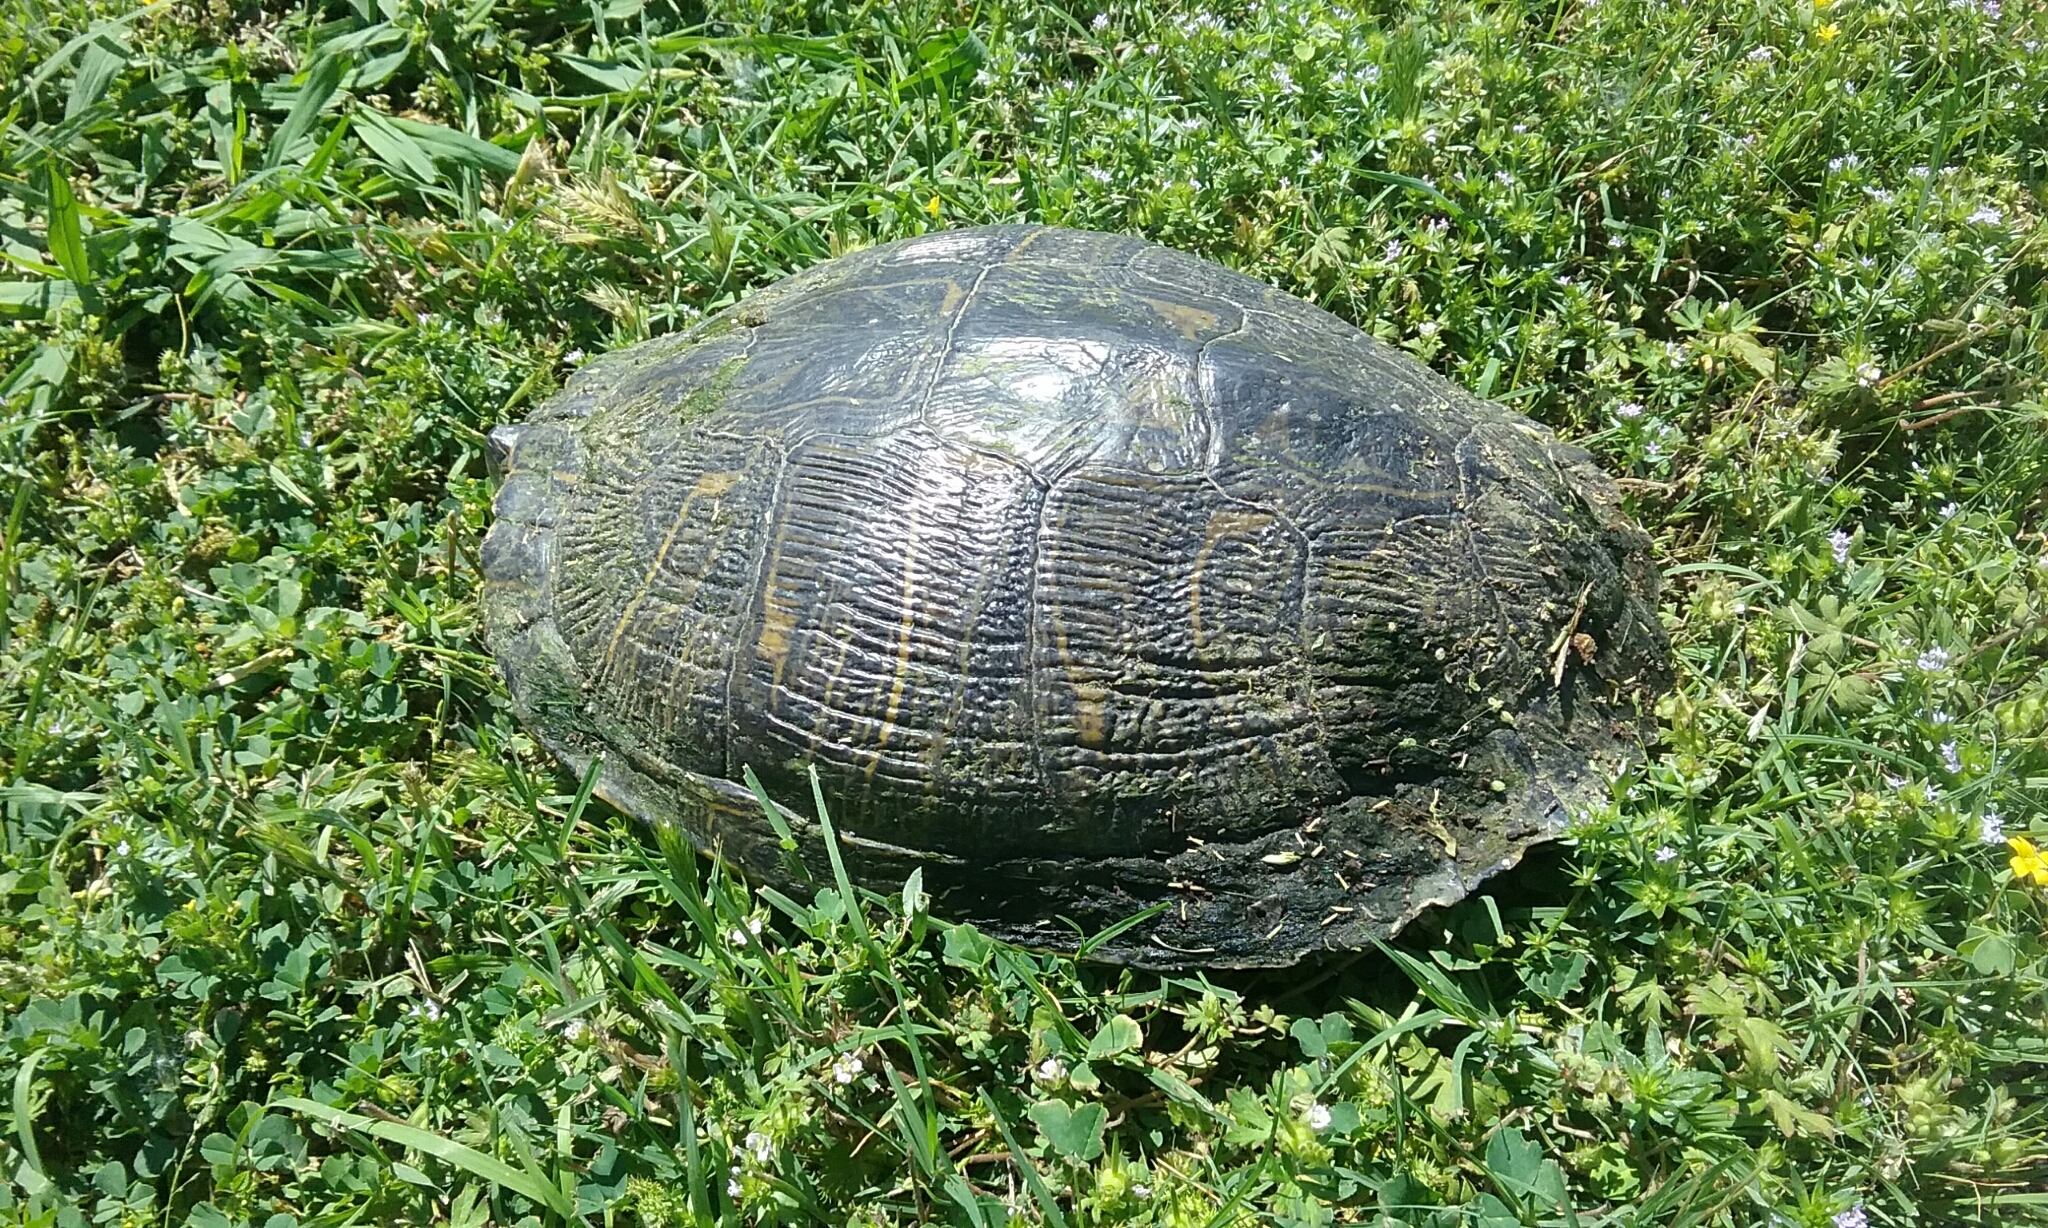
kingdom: Animalia
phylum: Chordata
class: Testudines
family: Emydidae
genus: Trachemys
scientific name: Trachemys scripta
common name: Slider
